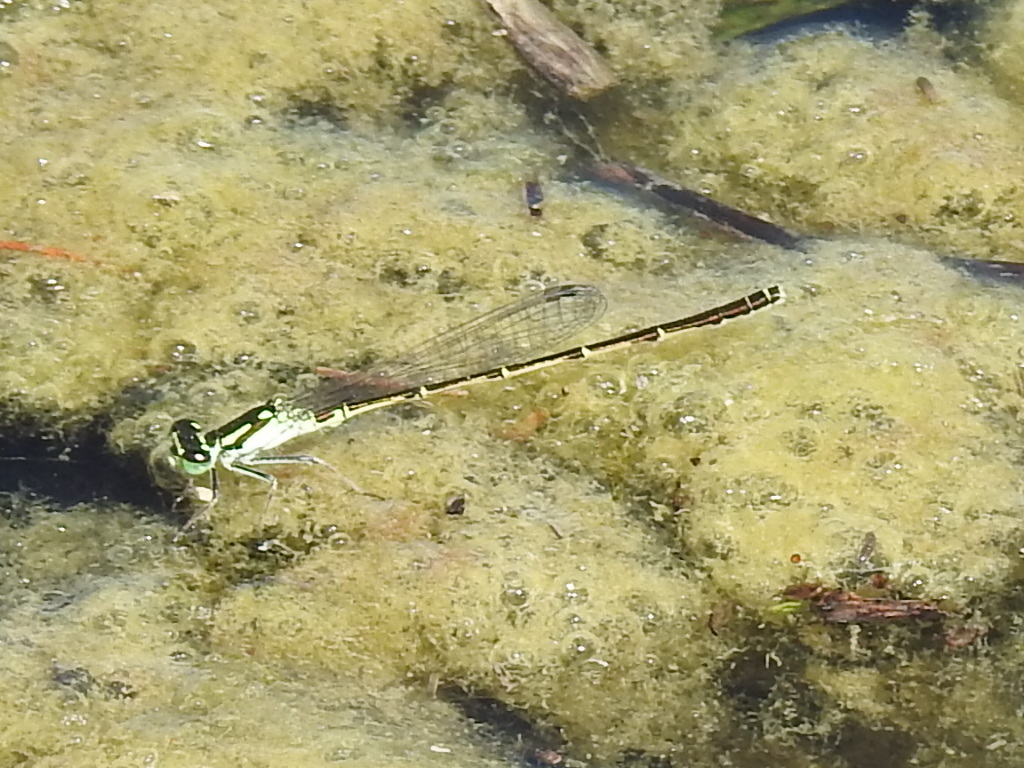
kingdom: Animalia
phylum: Arthropoda
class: Insecta
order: Odonata
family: Coenagrionidae
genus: Ischnura
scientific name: Ischnura posita
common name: Fragile forktail
